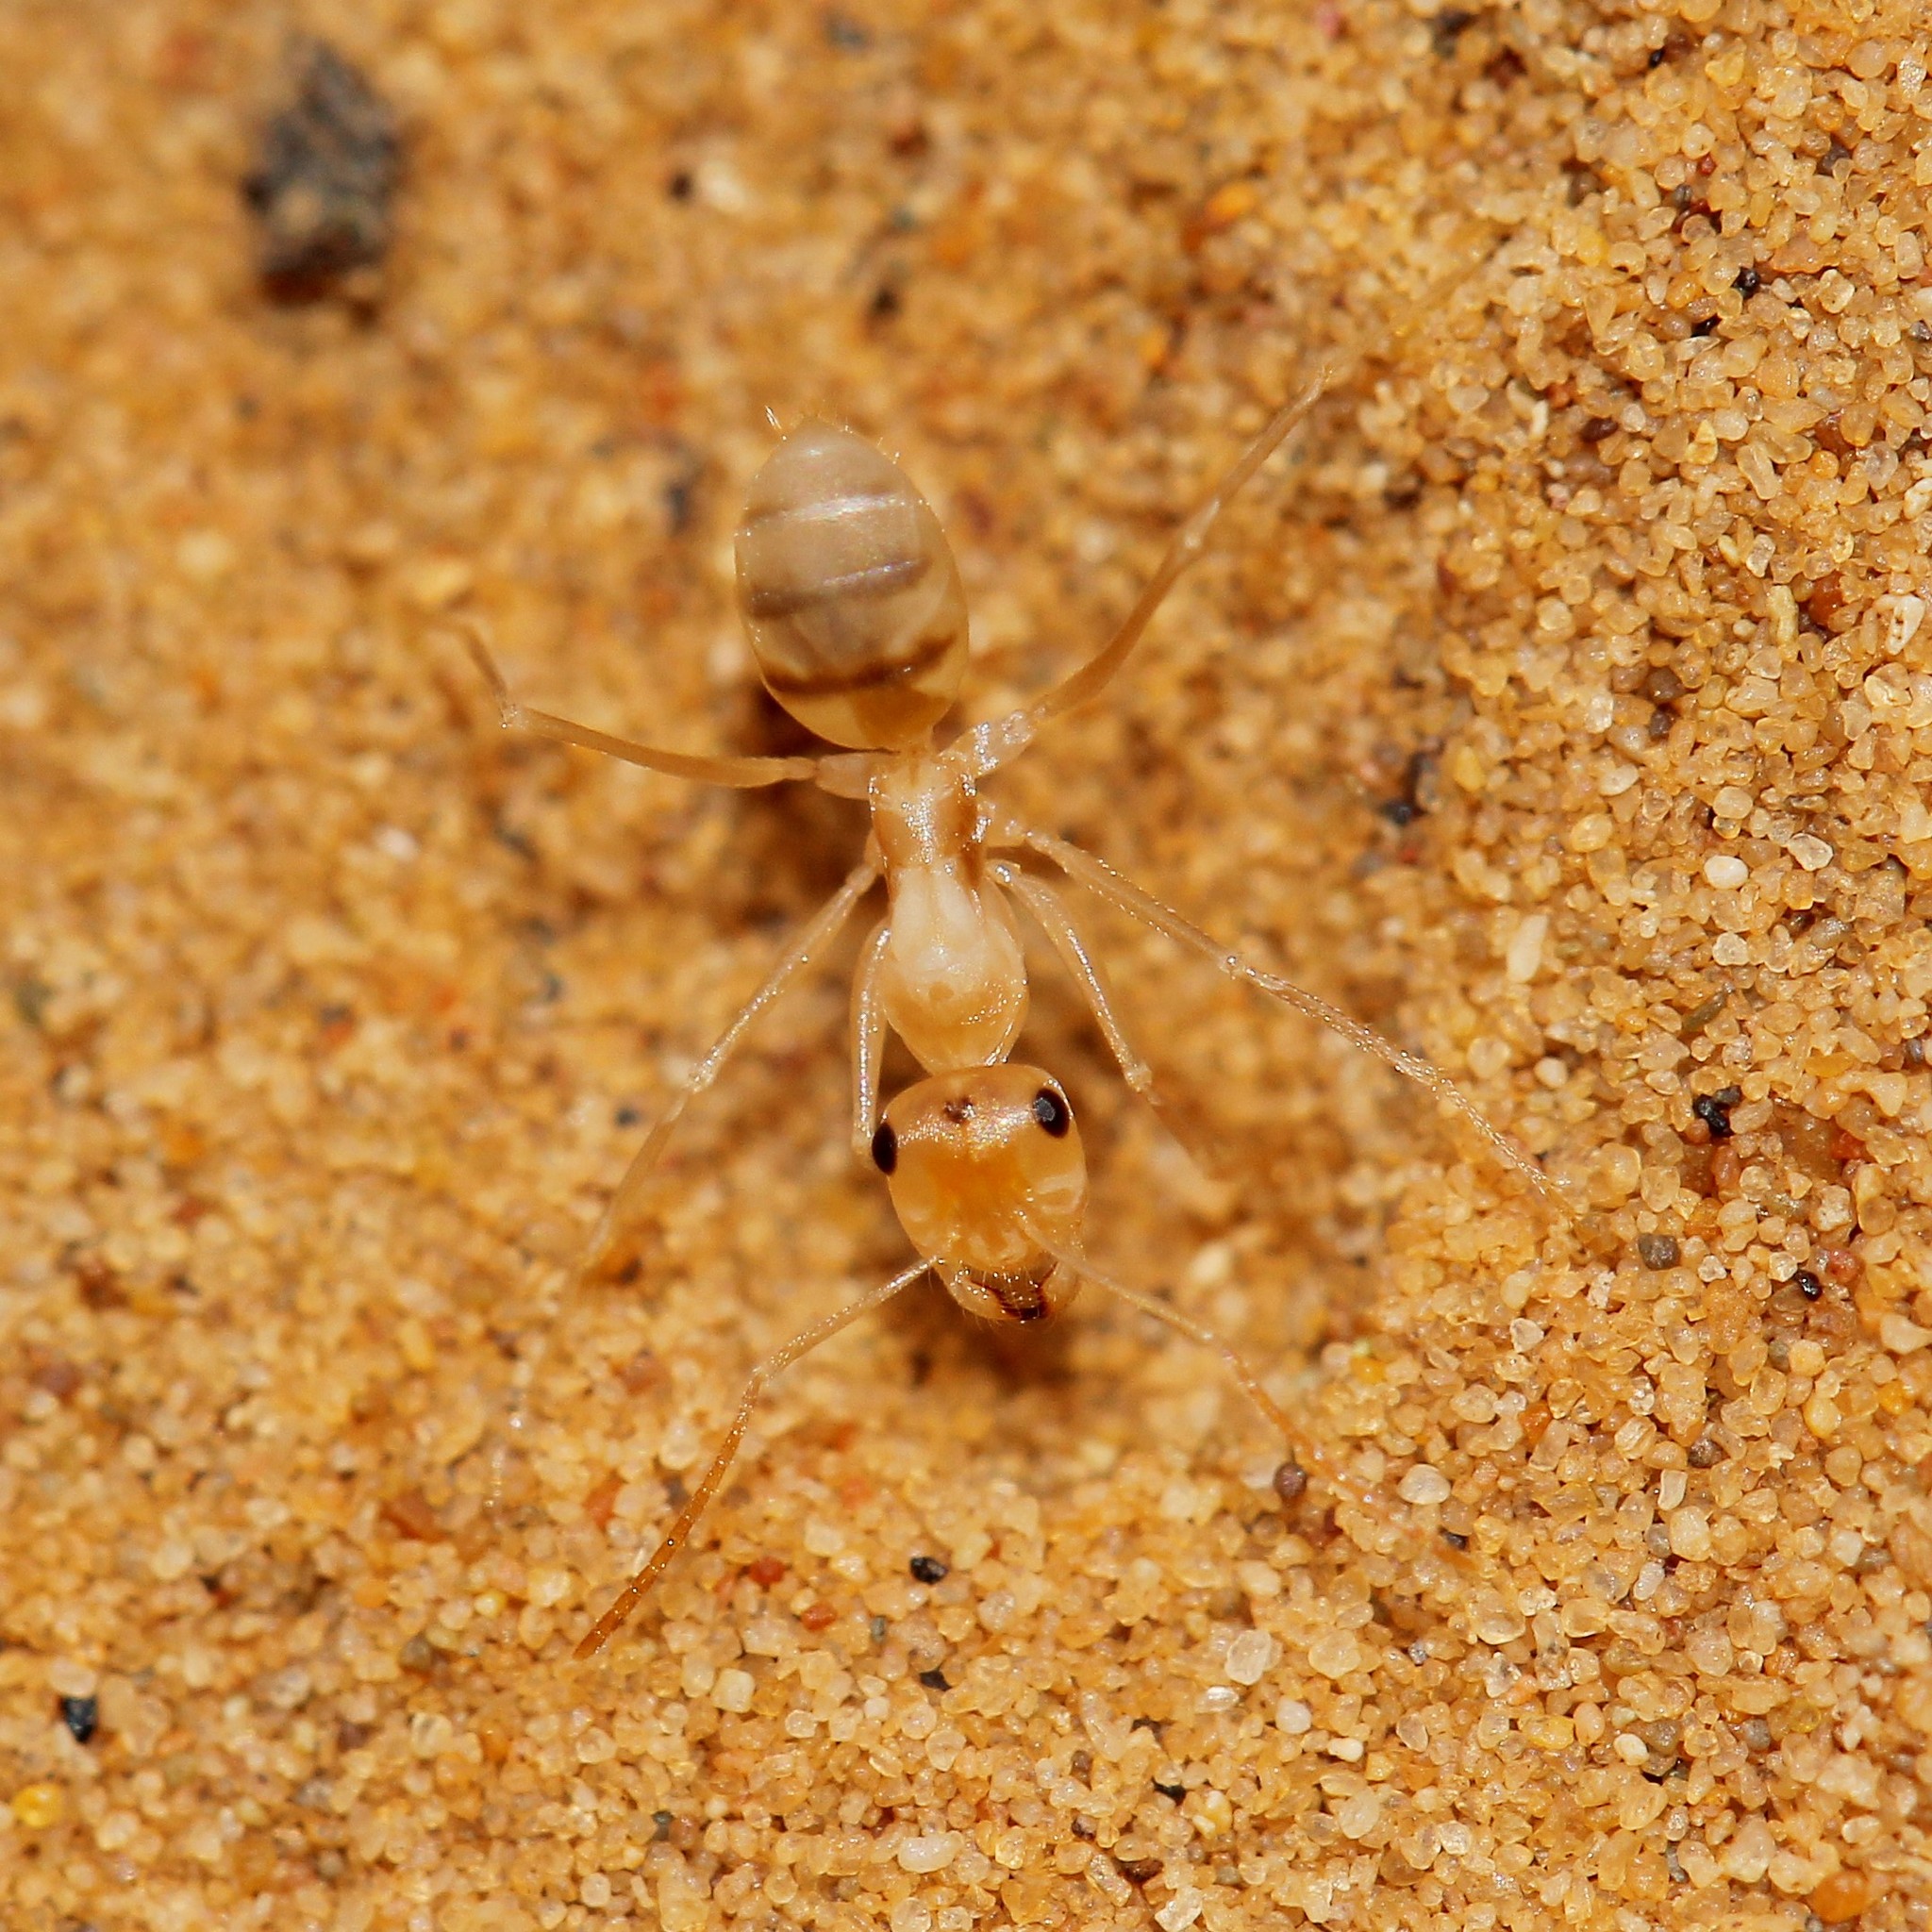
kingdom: Animalia
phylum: Arthropoda
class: Insecta
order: Hymenoptera
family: Formicidae
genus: Cataglyphis
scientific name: Cataglyphis pallidus
